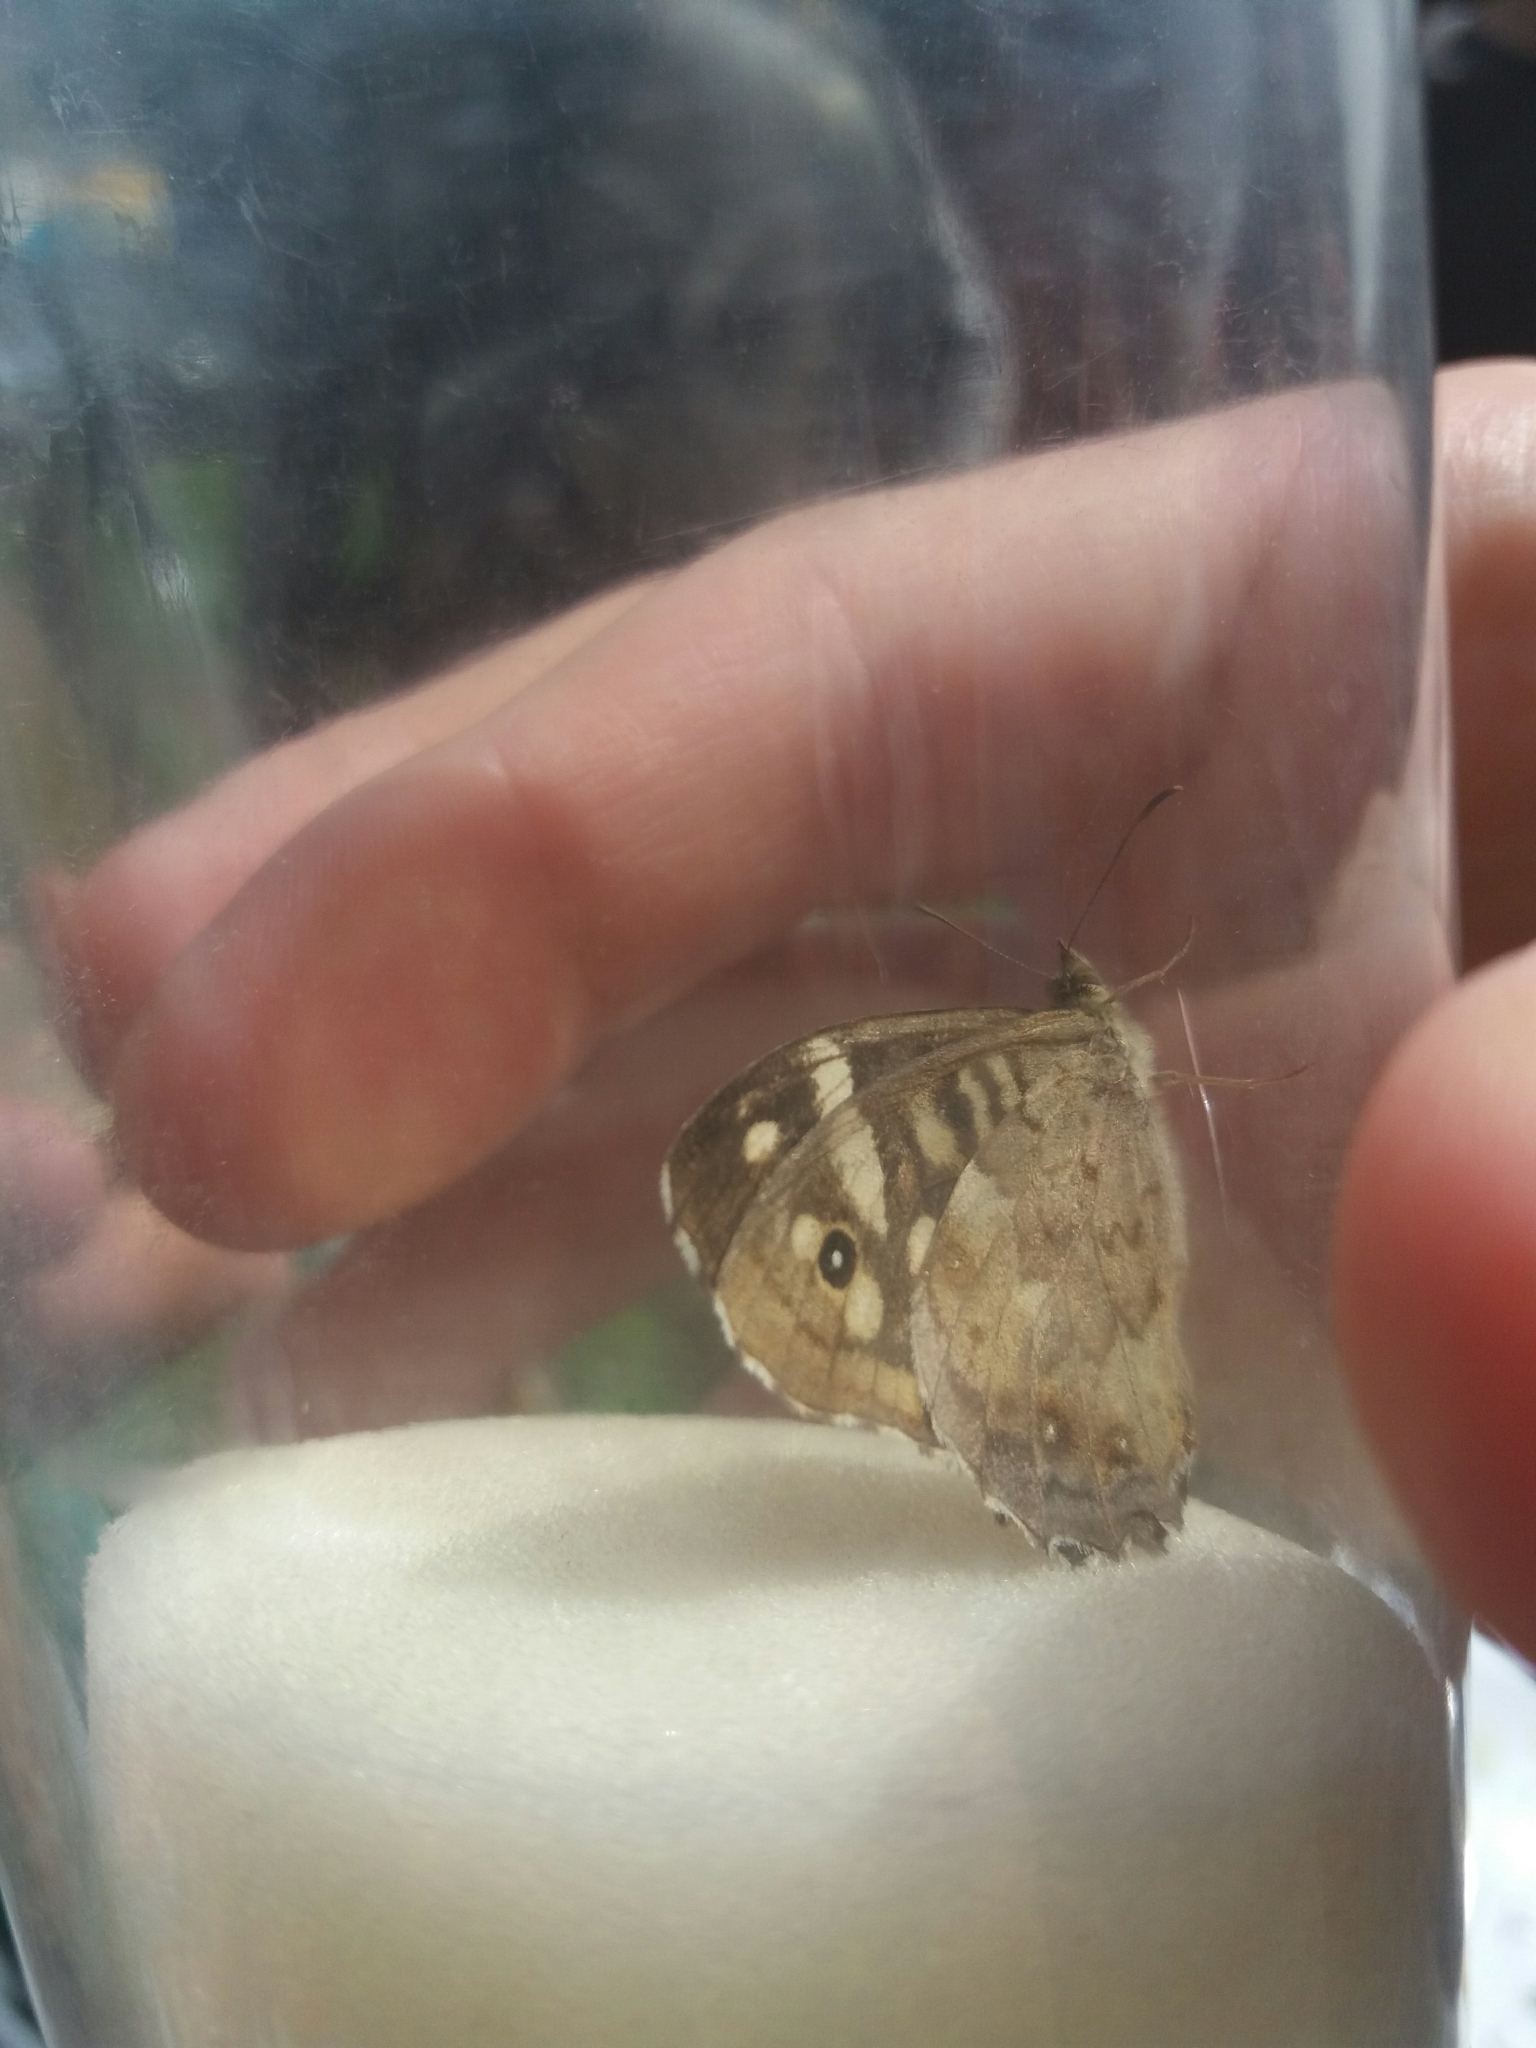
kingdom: Animalia
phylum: Arthropoda
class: Insecta
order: Lepidoptera
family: Nymphalidae
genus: Pararge
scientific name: Pararge aegeria
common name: Speckled wood
